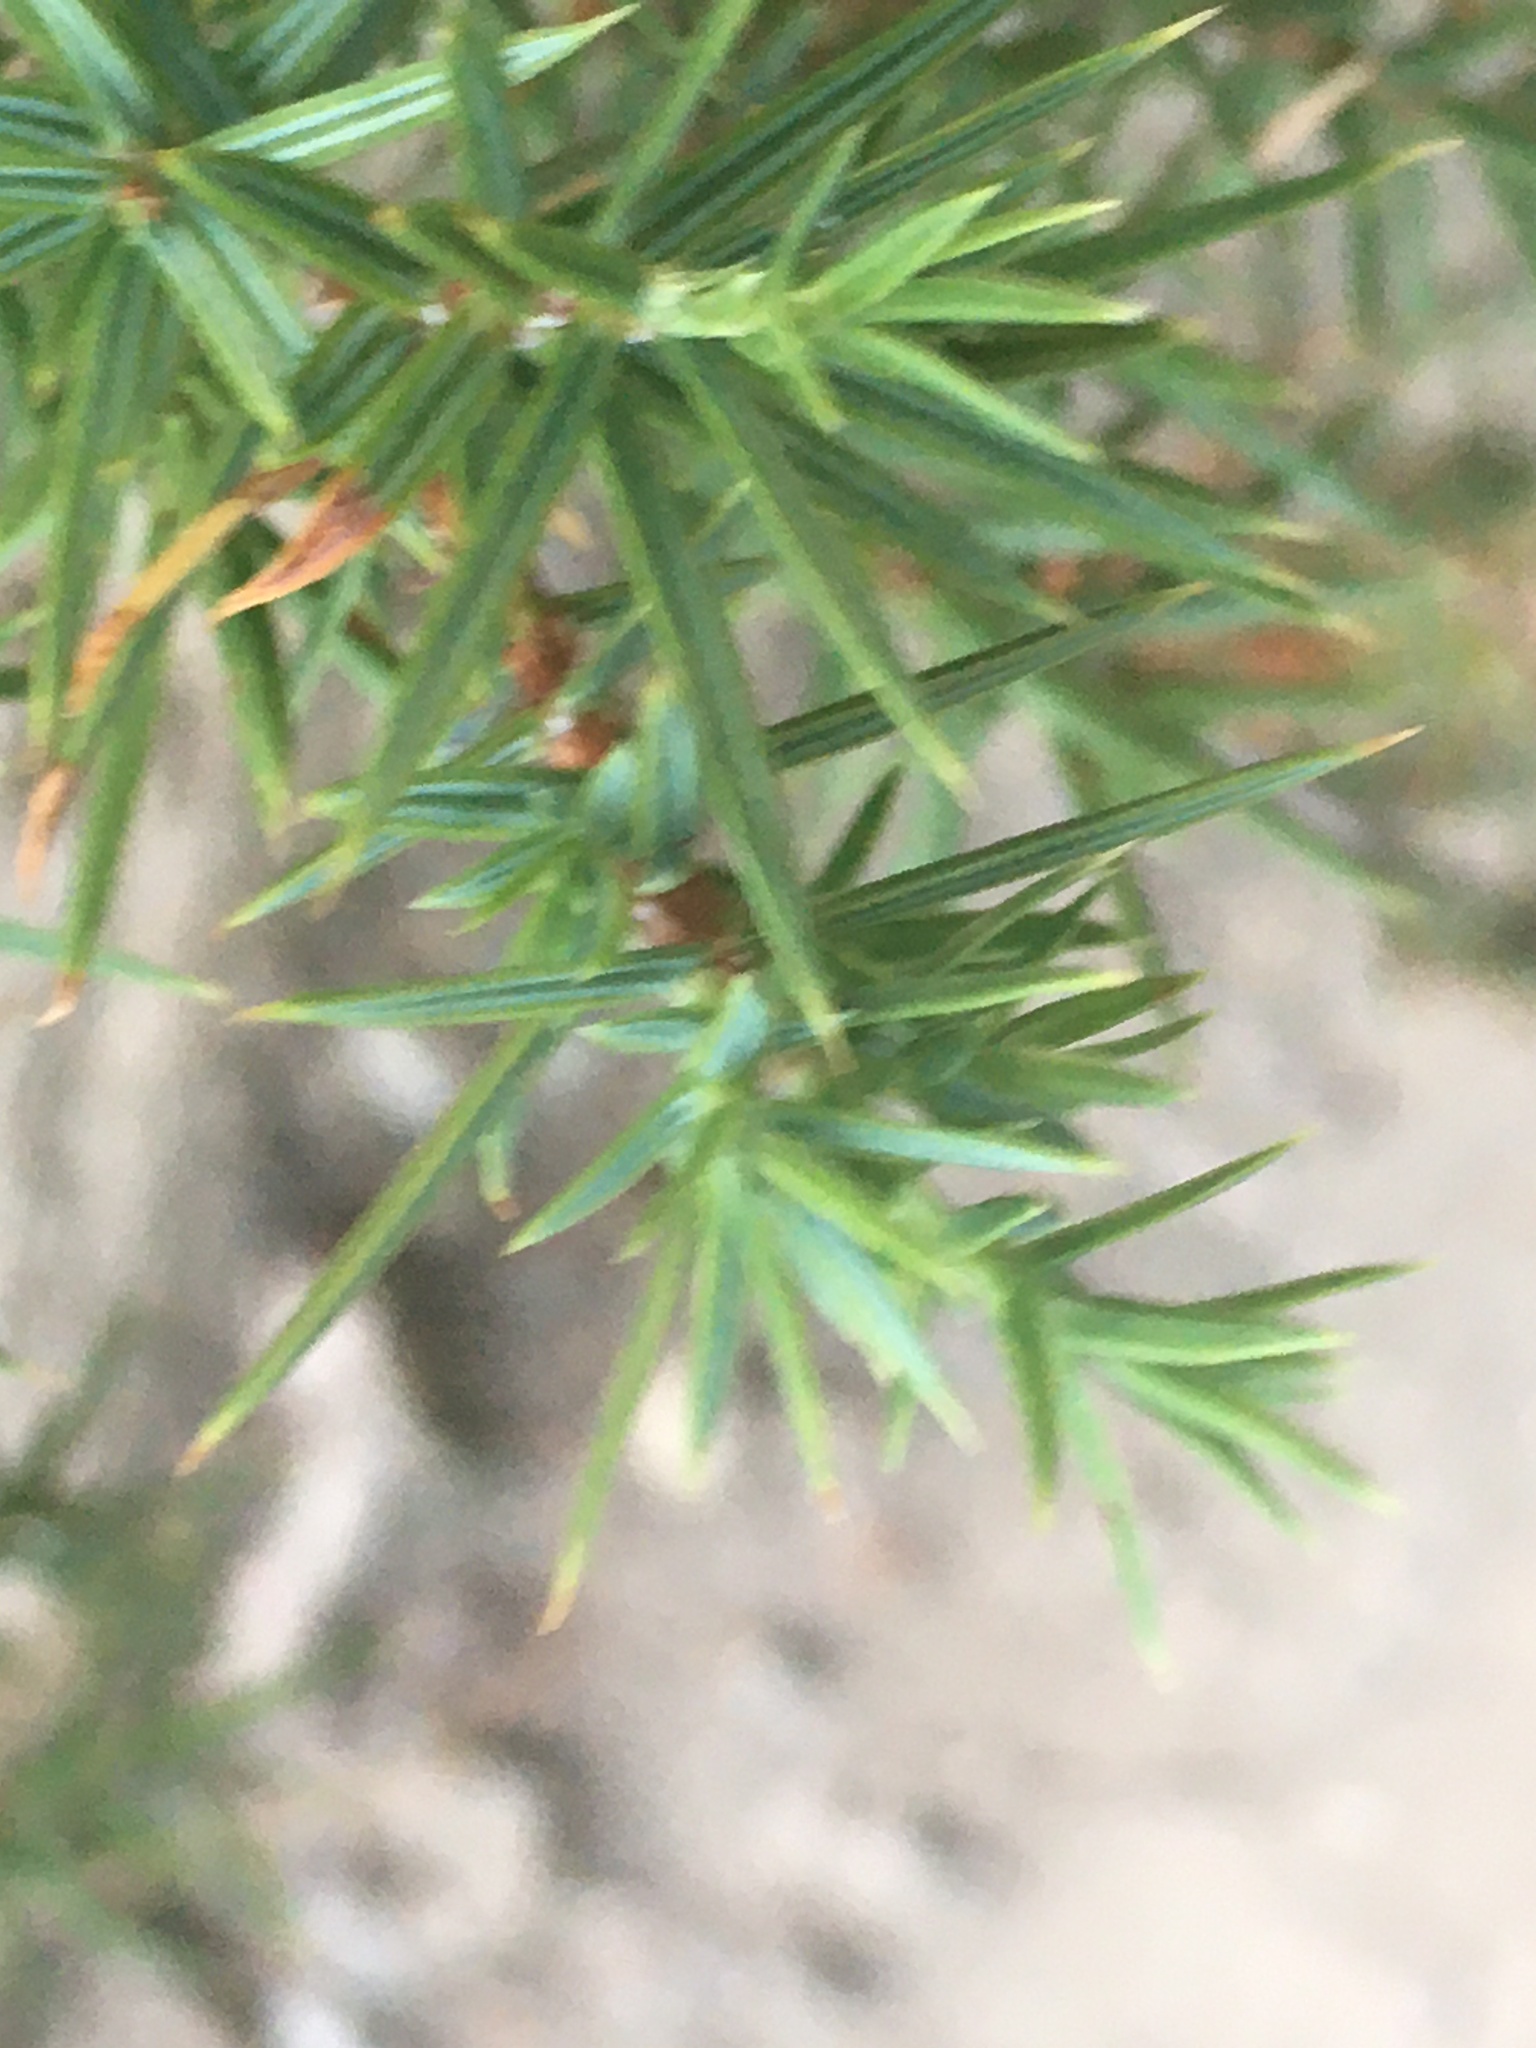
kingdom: Plantae
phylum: Tracheophyta
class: Pinopsida
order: Pinales
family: Cupressaceae
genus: Juniperus
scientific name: Juniperus oxycedrus
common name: Prickly juniper
